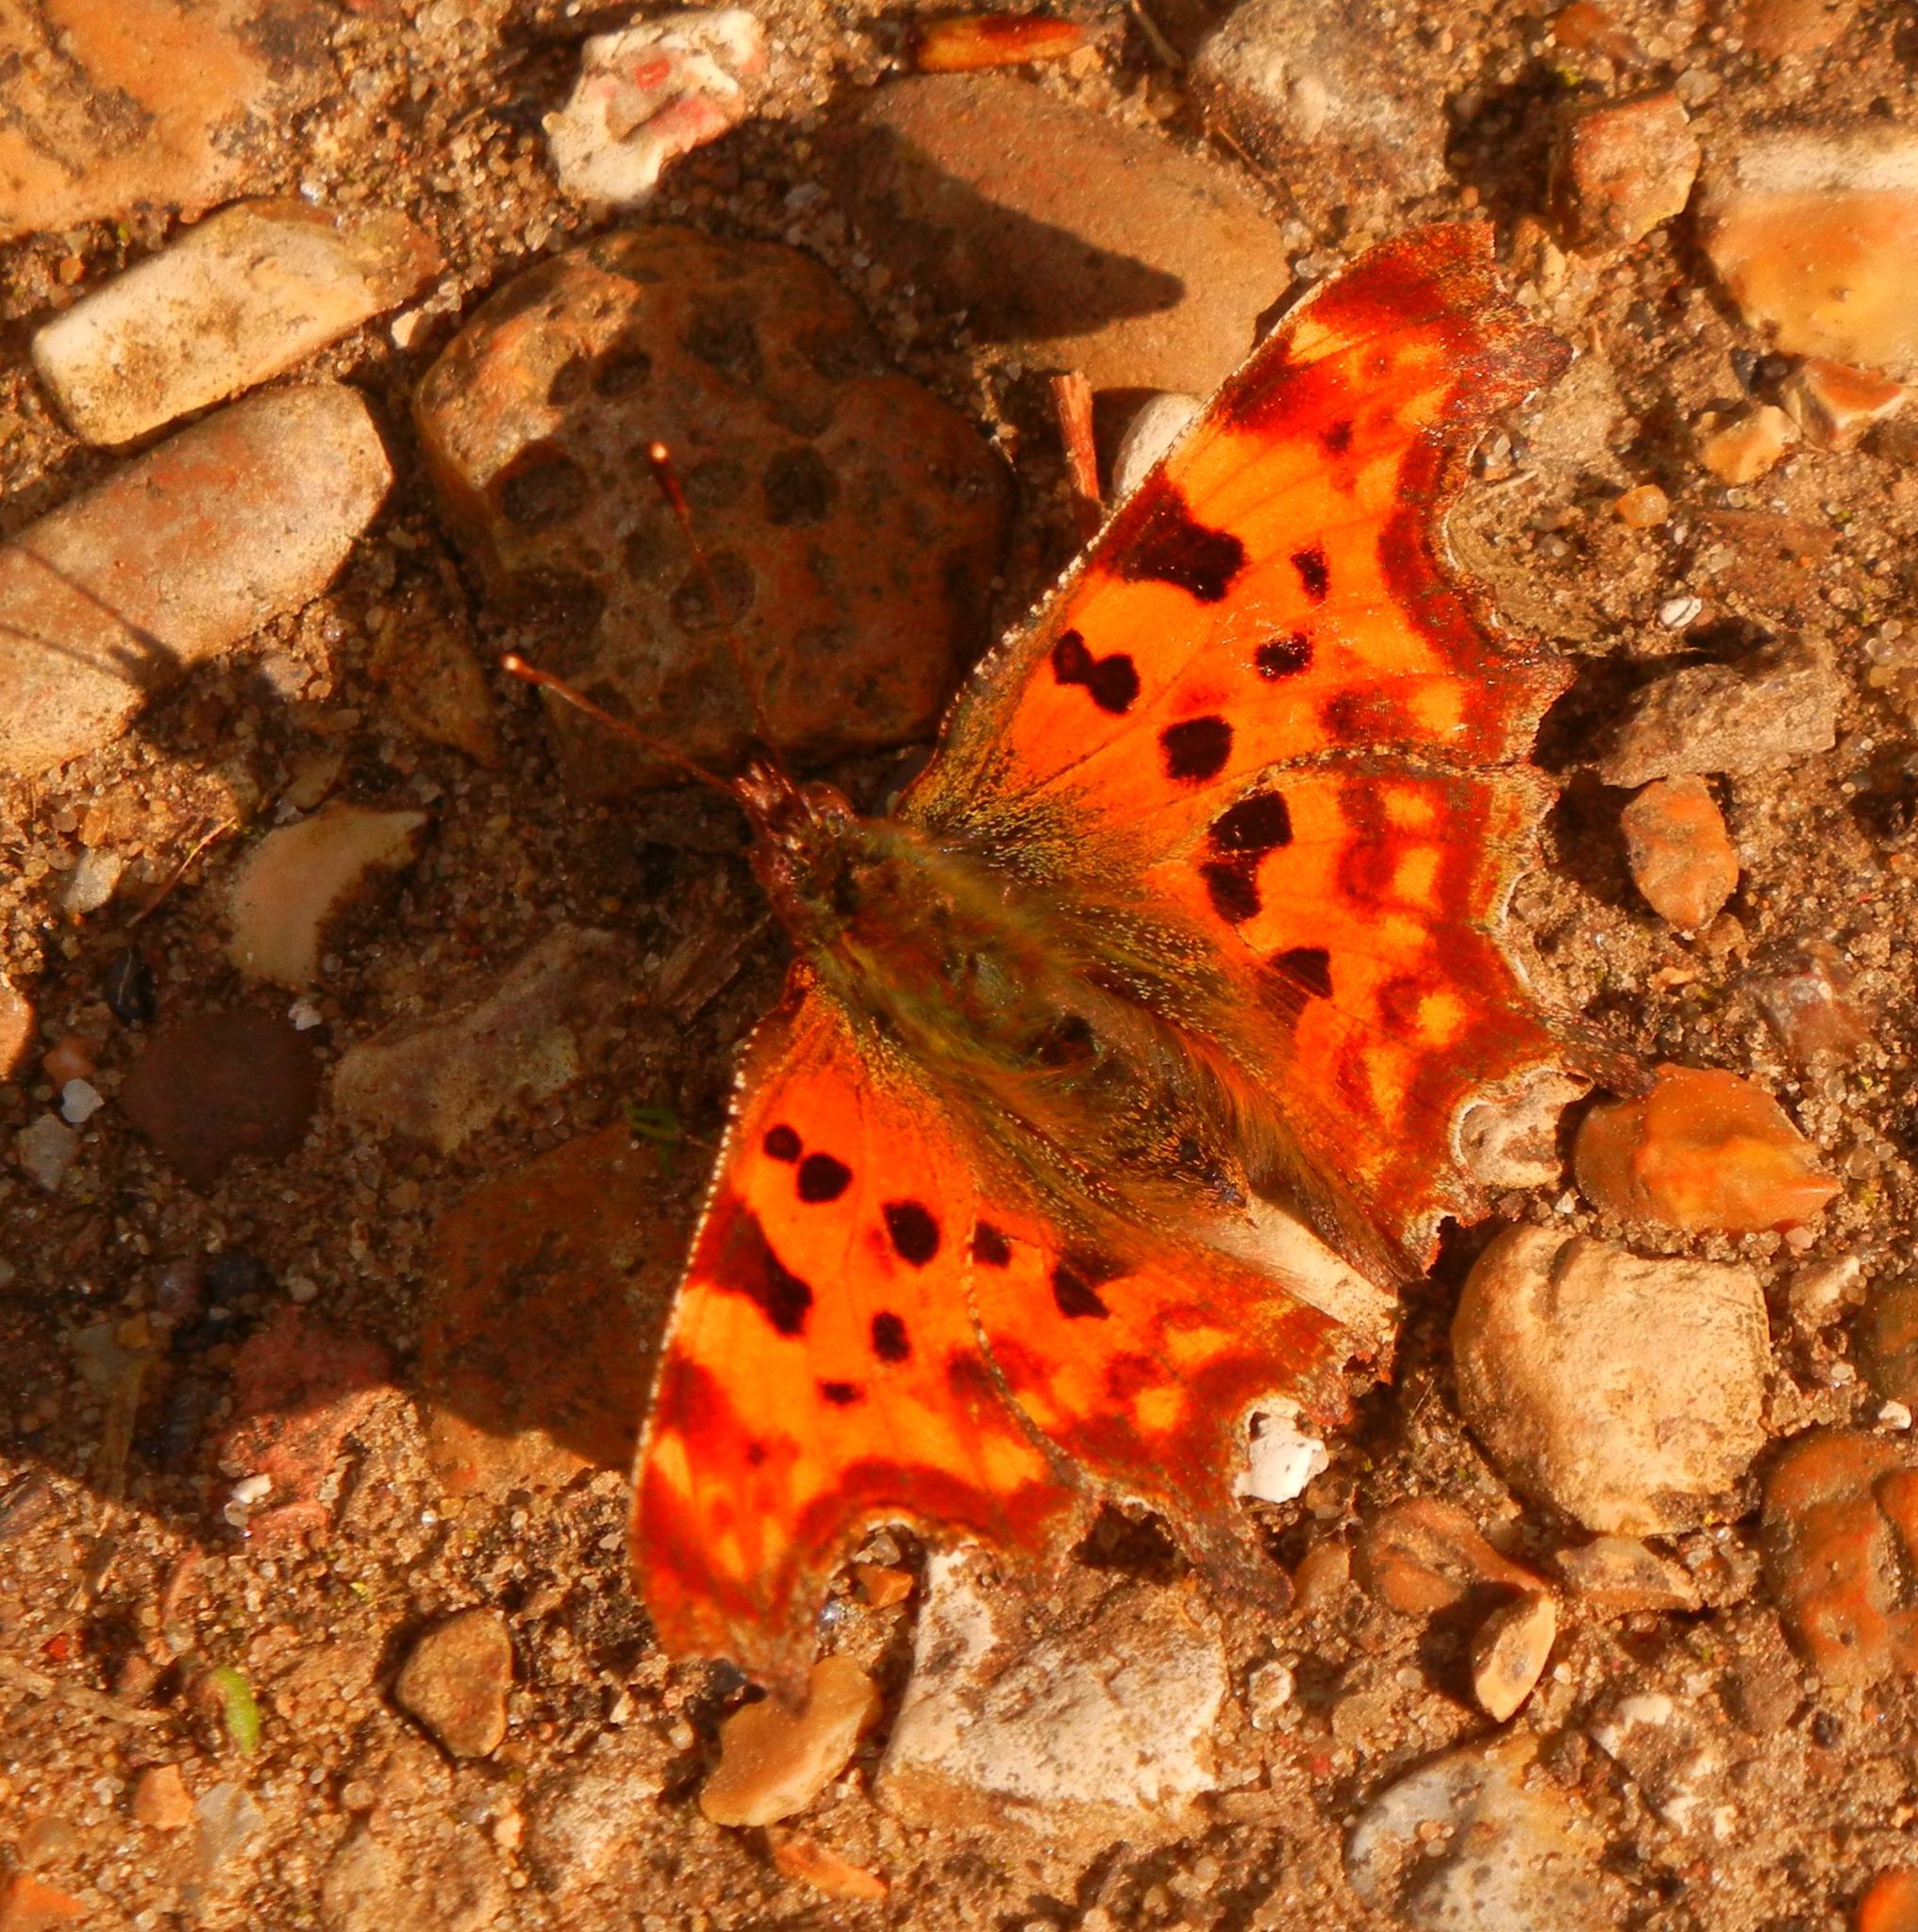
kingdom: Animalia
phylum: Arthropoda
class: Insecta
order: Lepidoptera
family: Nymphalidae
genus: Polygonia
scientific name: Polygonia c-album
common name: Comma
